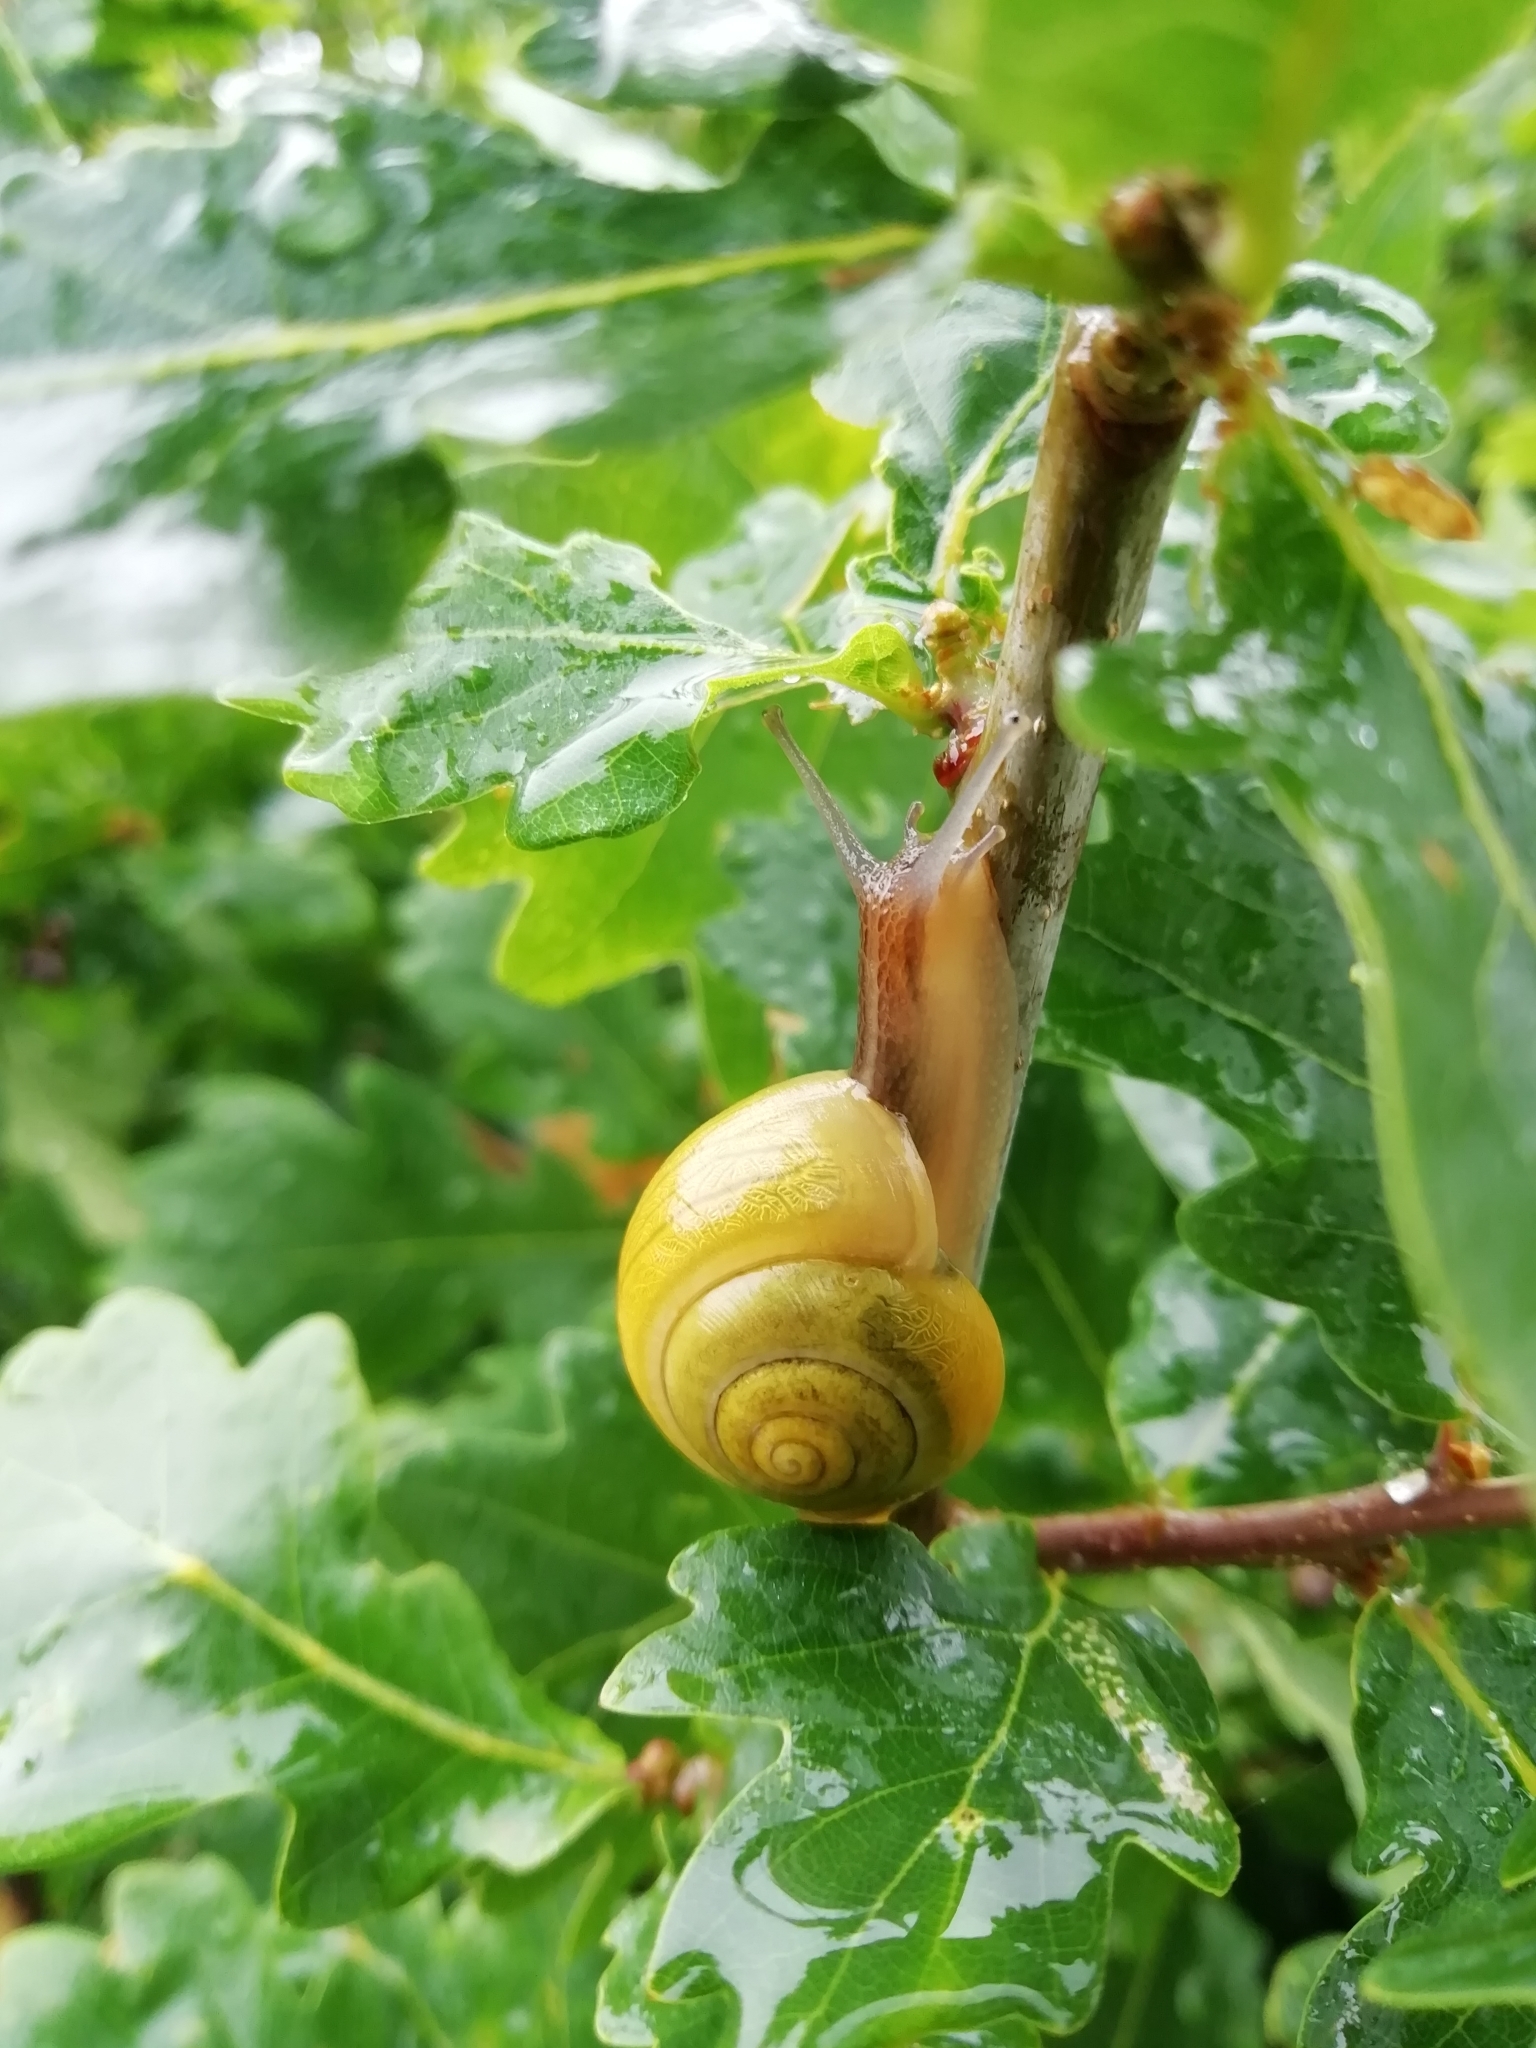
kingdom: Animalia
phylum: Mollusca
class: Gastropoda
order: Stylommatophora
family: Helicidae
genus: Cepaea
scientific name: Cepaea hortensis
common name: White-lip gardensnail
